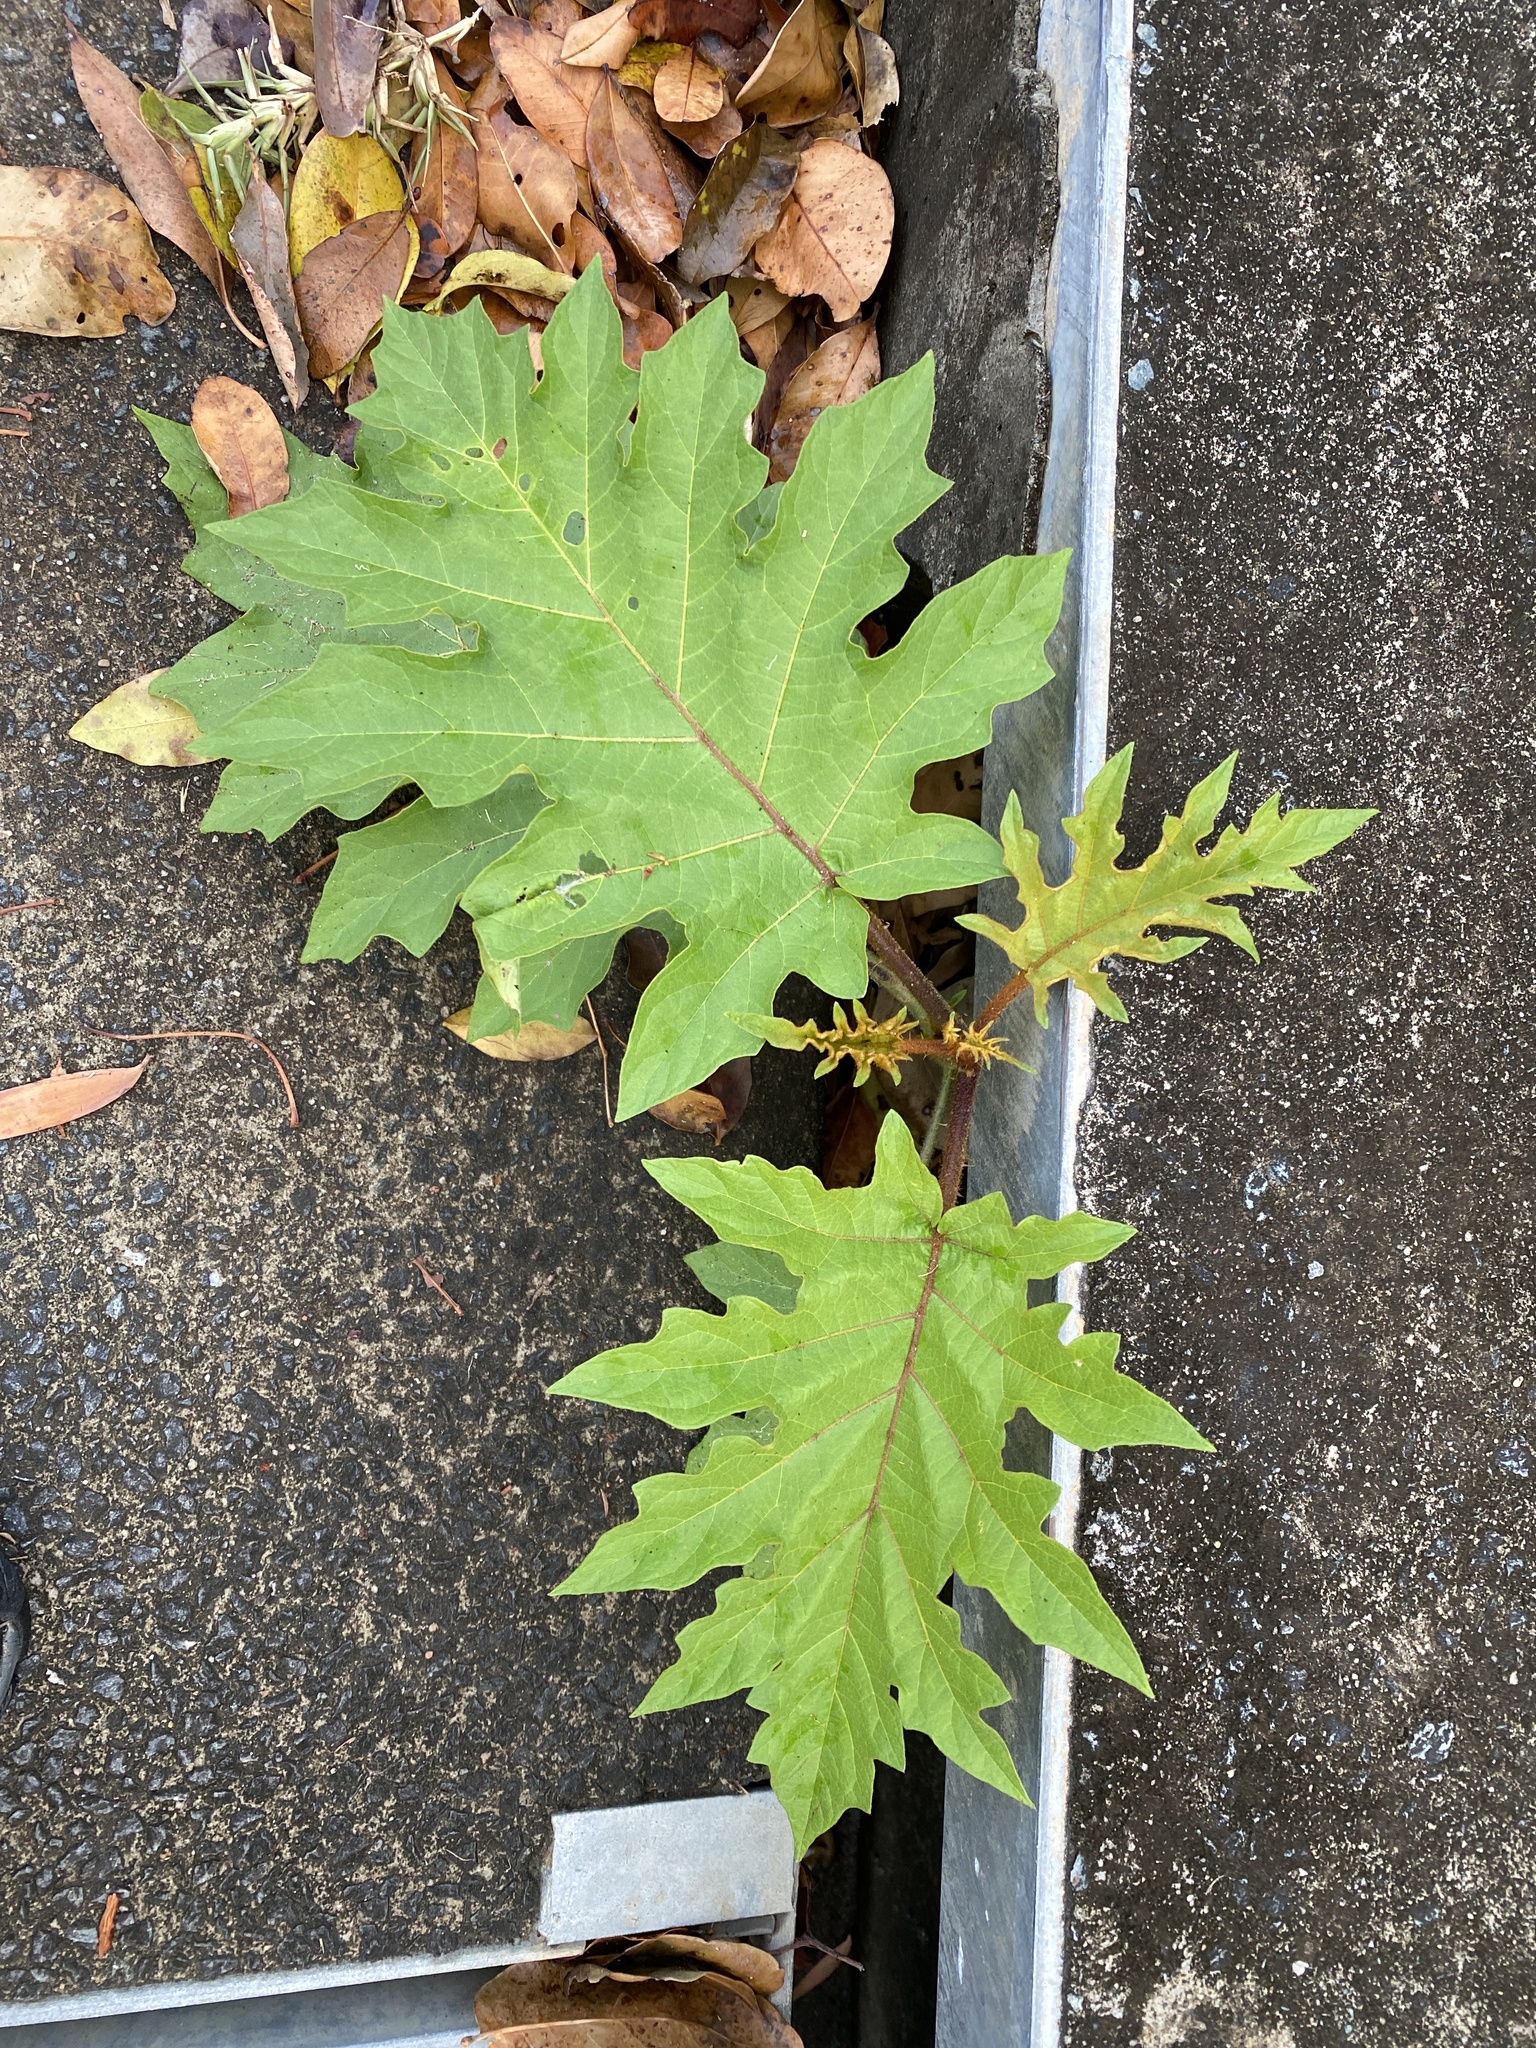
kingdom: Plantae
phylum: Tracheophyta
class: Magnoliopsida
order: Solanales
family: Solanaceae
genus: Solanum
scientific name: Solanum chrysotrichum
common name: Nightshade
